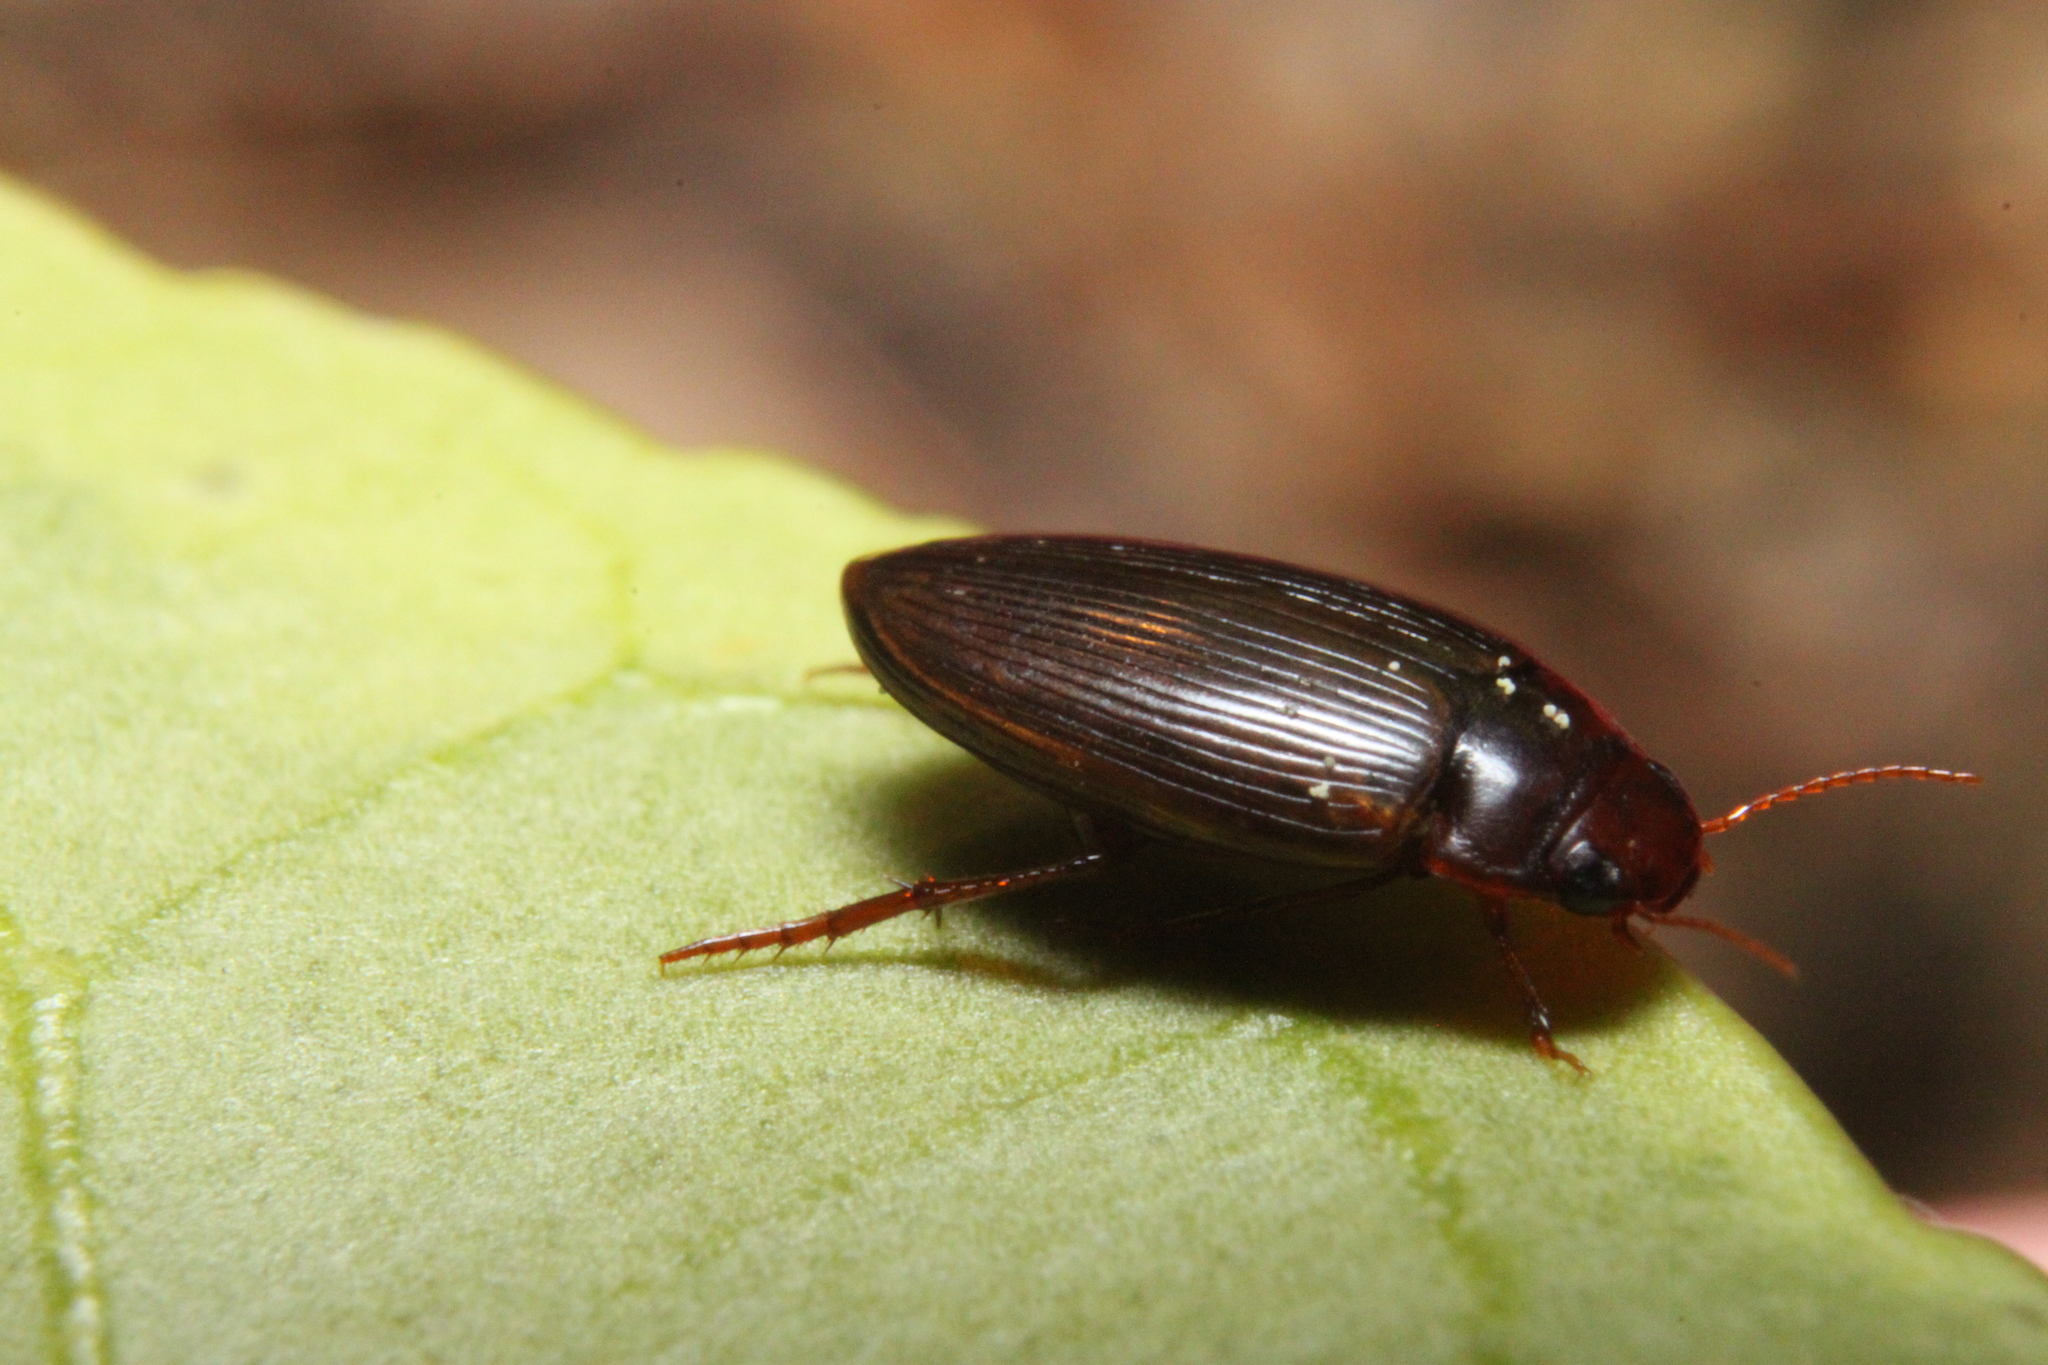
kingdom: Animalia
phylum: Arthropoda
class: Insecta
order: Coleoptera
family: Dytiscidae
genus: Copelatus
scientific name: Copelatus glyphicus
